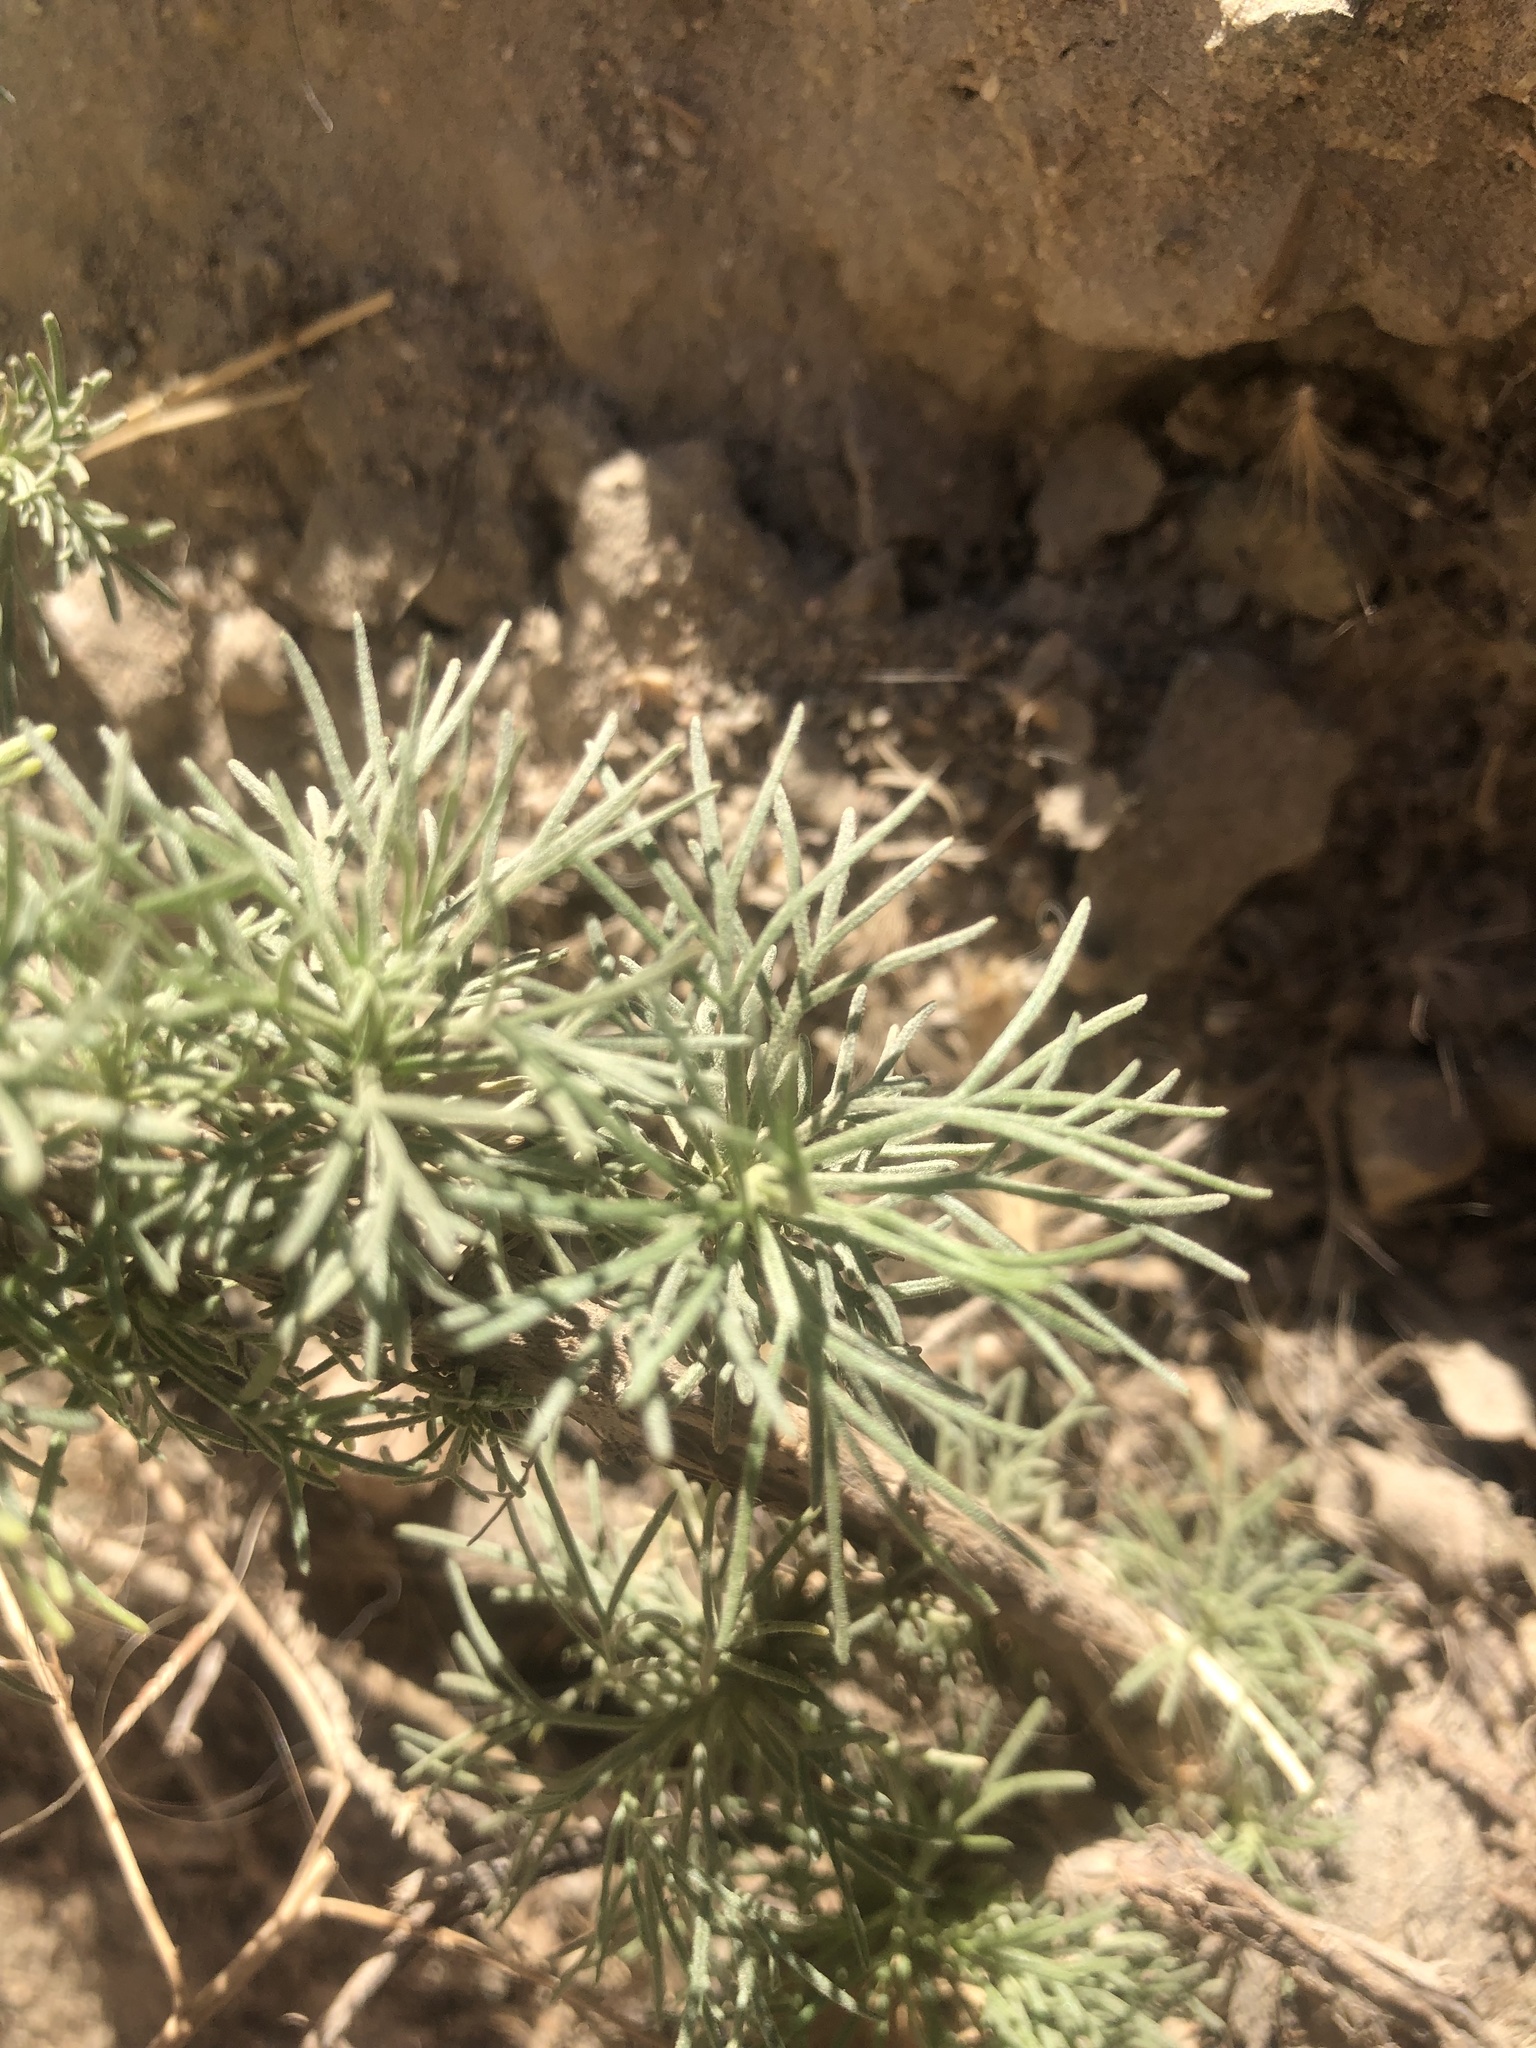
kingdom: Plantae
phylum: Tracheophyta
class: Magnoliopsida
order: Asterales
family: Asteraceae
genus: Artemisia
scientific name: Artemisia californica
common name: California sagebrush
